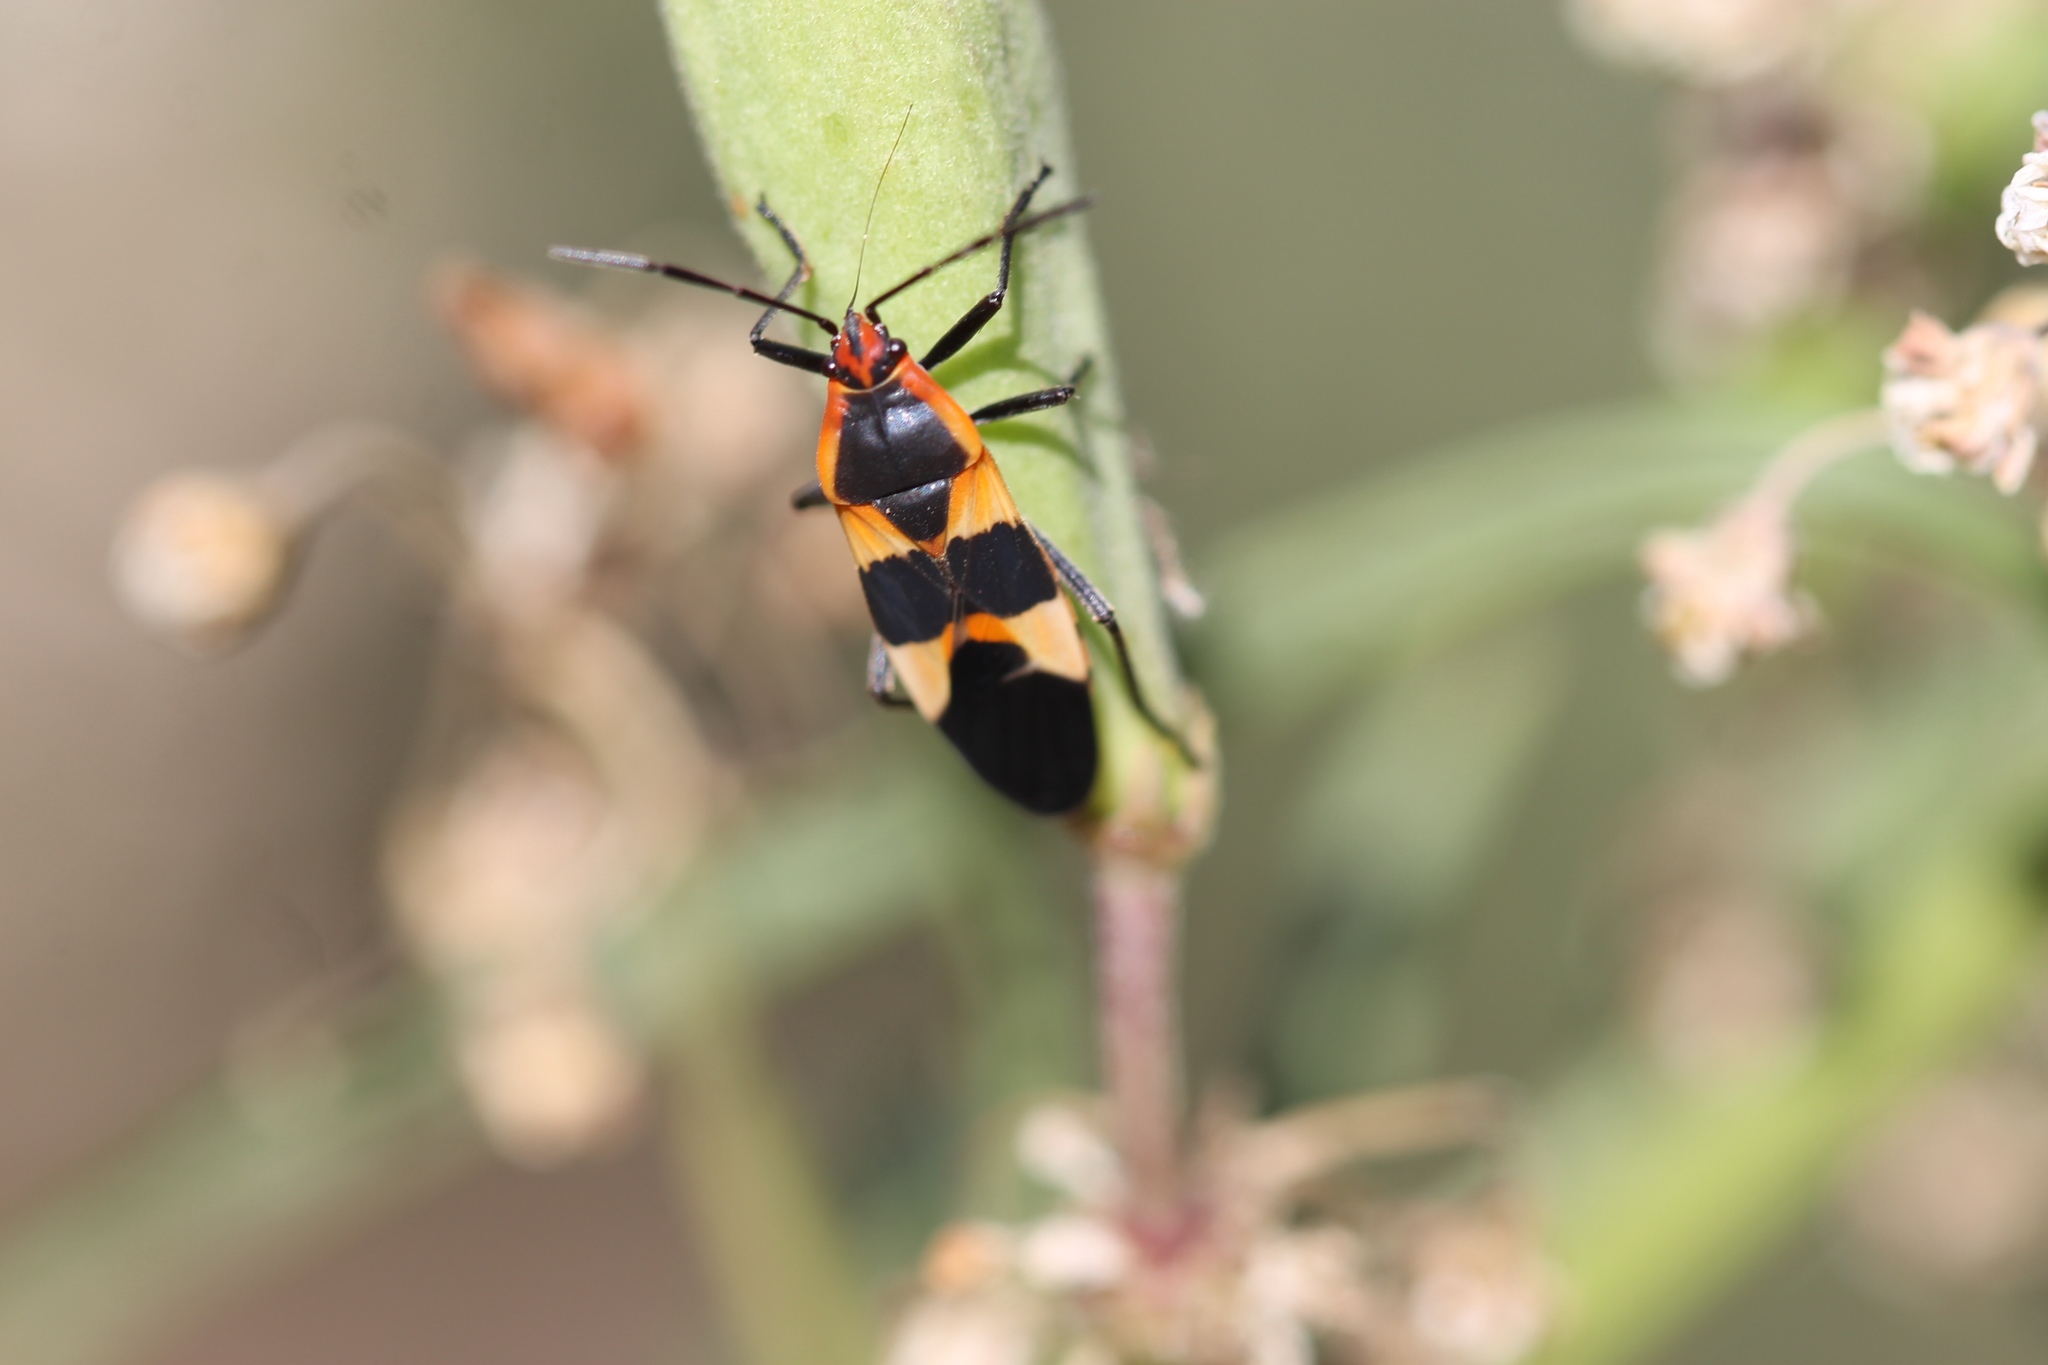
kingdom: Animalia
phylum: Arthropoda
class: Insecta
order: Hemiptera
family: Lygaeidae
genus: Oncopeltus
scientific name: Oncopeltus fasciatus
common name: Large milkweed bug
